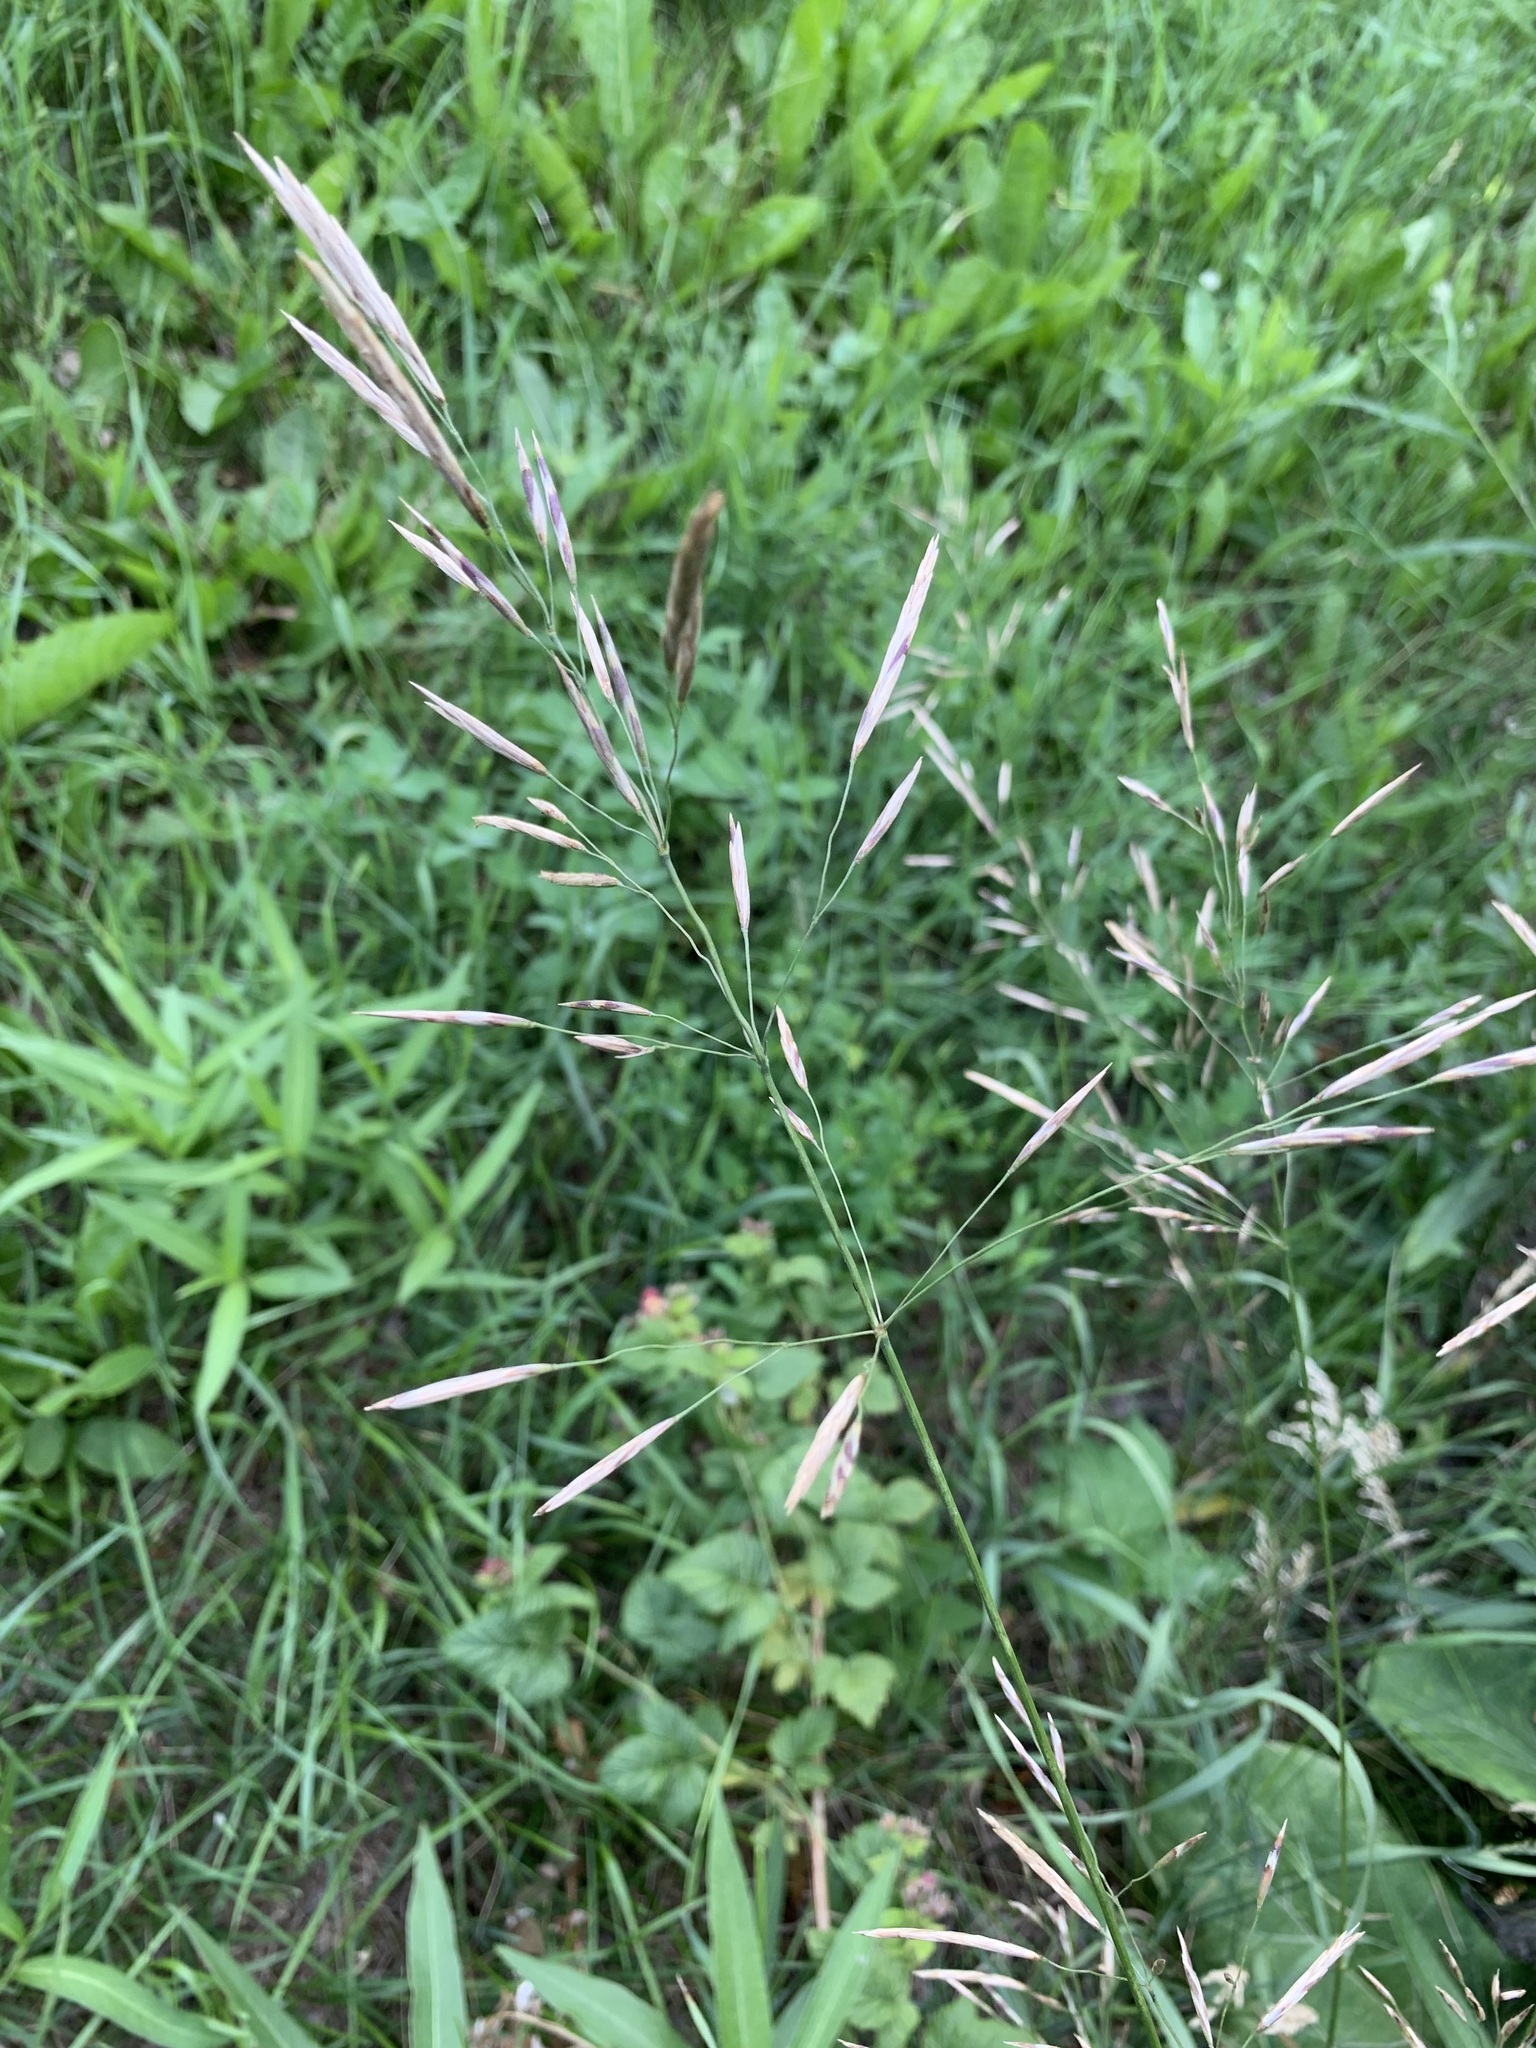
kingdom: Plantae
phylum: Tracheophyta
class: Liliopsida
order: Poales
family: Poaceae
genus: Bromus
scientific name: Bromus inermis
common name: Smooth brome
